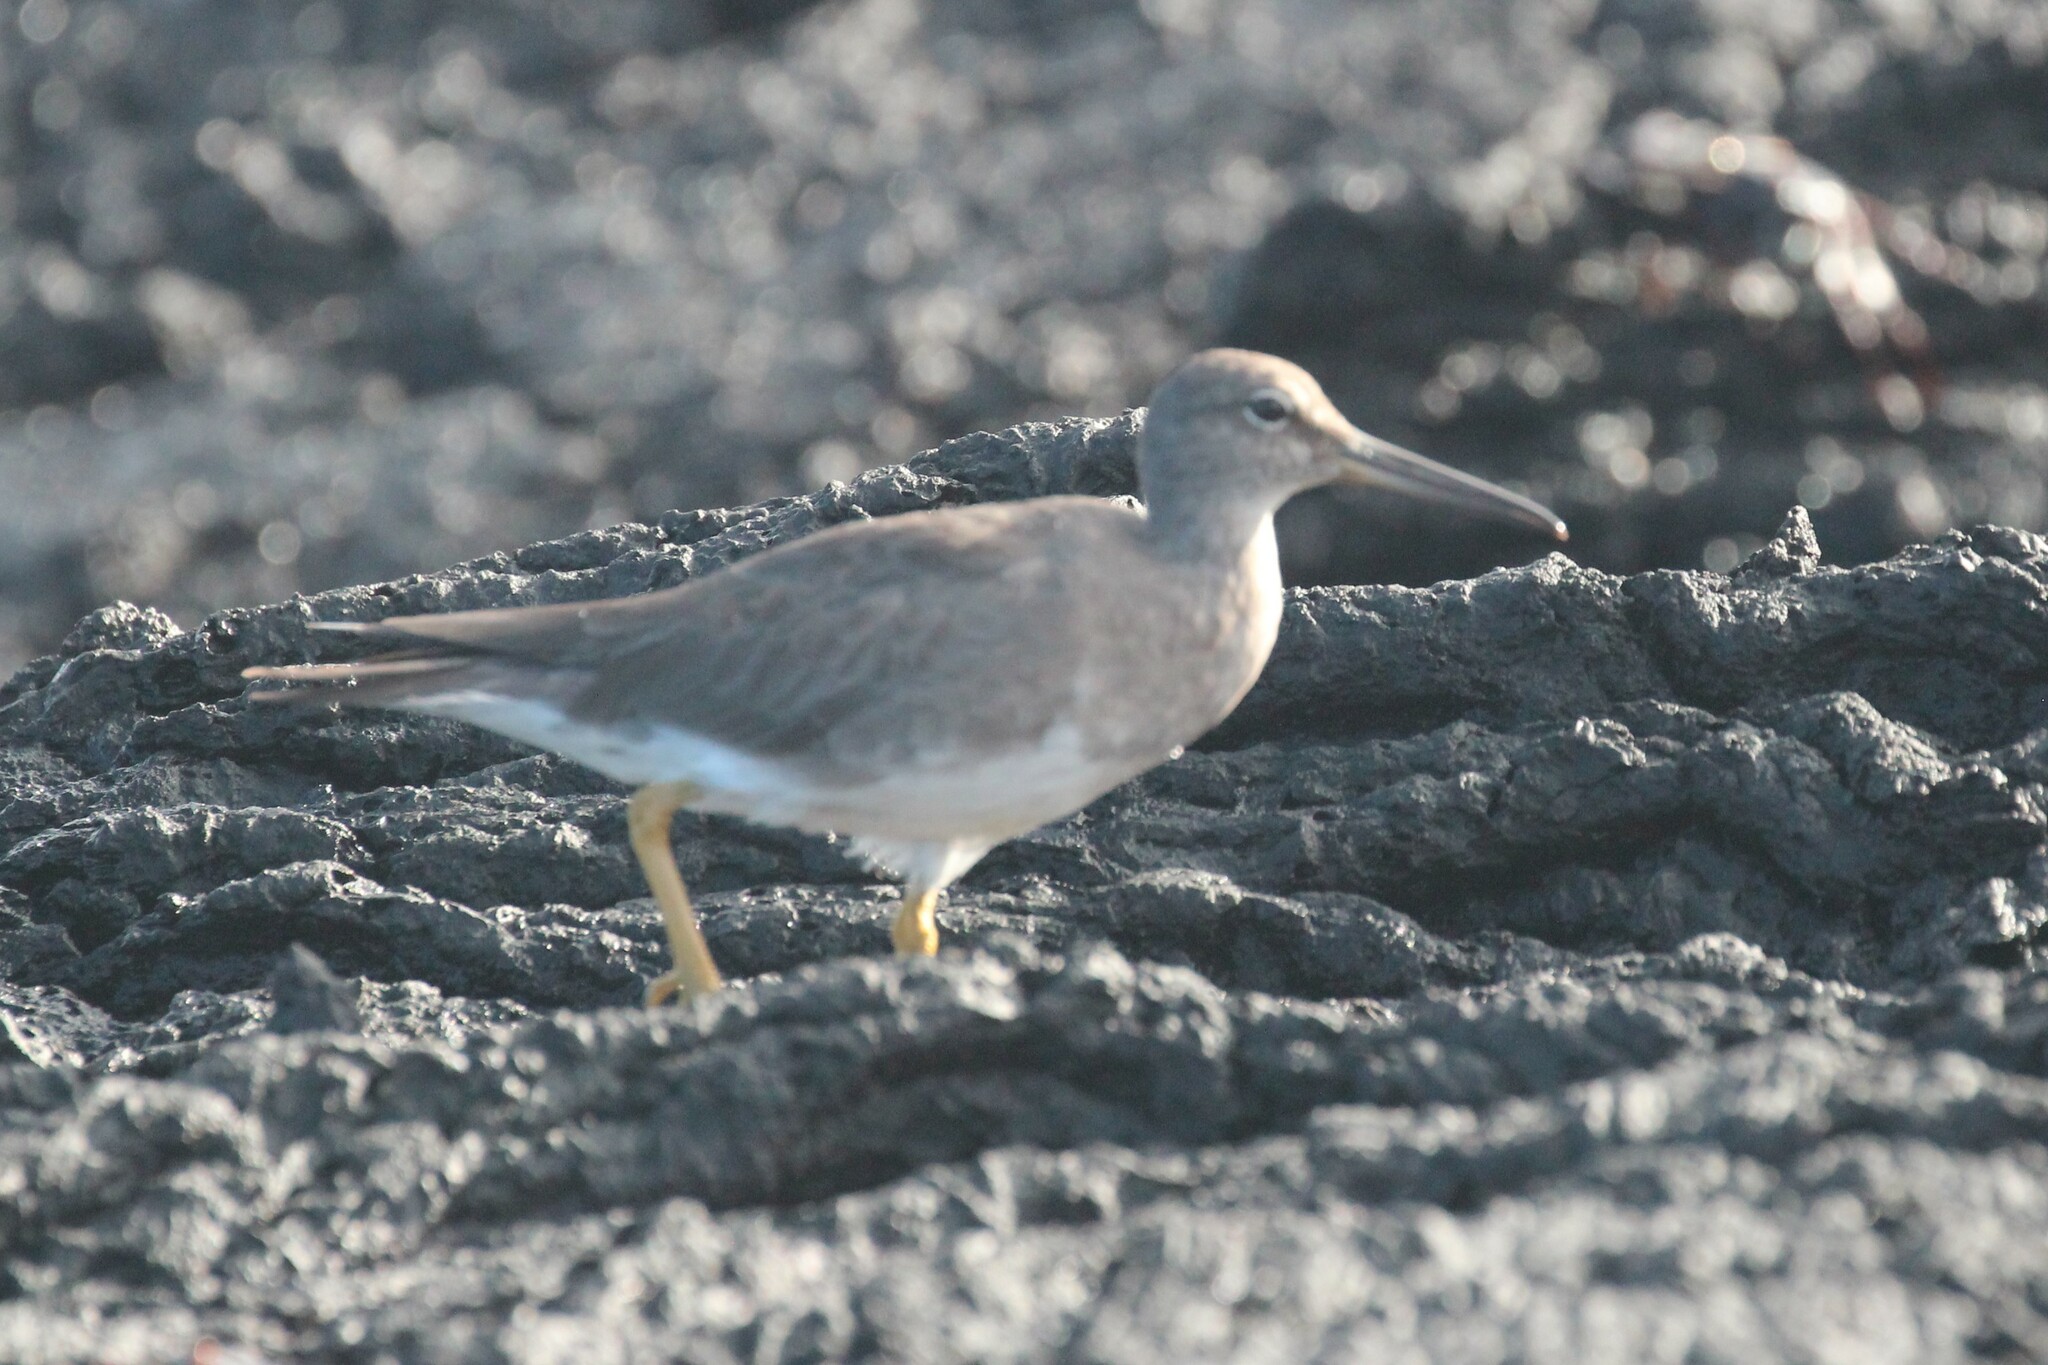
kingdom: Animalia
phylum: Chordata
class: Aves
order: Charadriiformes
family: Scolopacidae
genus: Tringa
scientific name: Tringa incana
